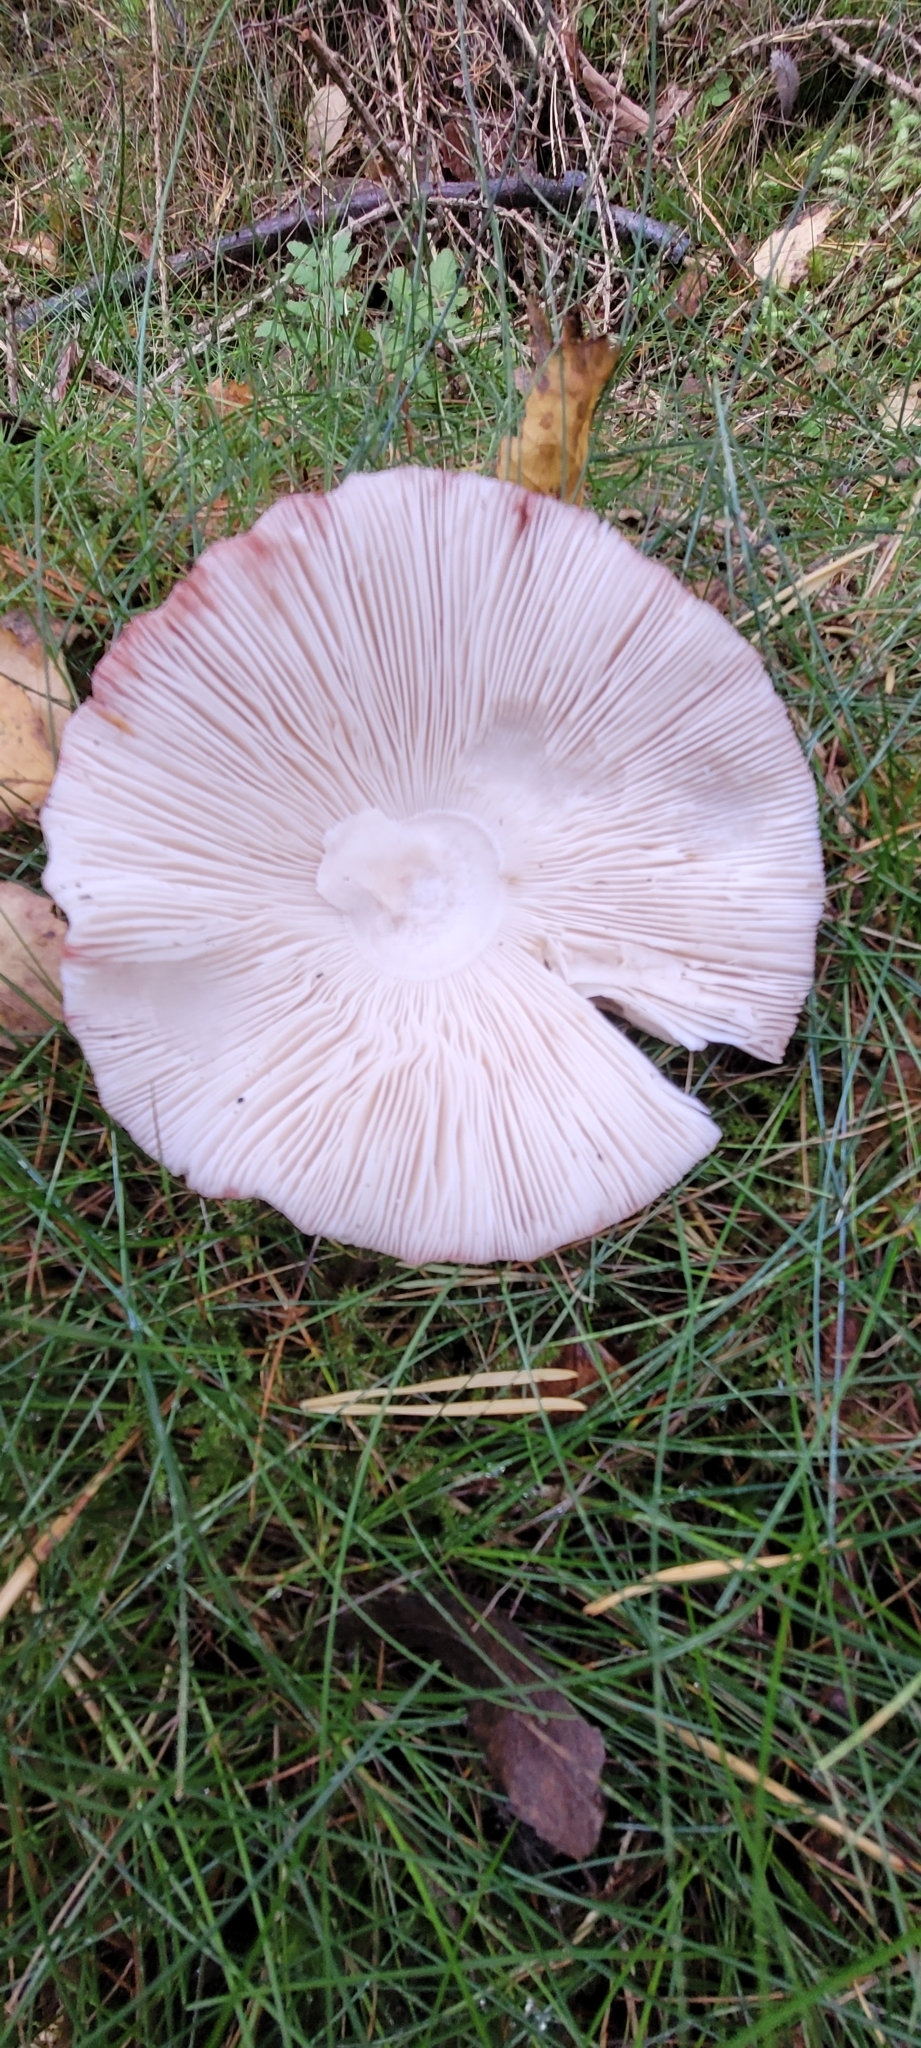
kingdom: Fungi
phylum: Basidiomycota
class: Agaricomycetes
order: Agaricales
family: Amanitaceae
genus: Amanita
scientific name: Amanita rubescens
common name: Blusher
